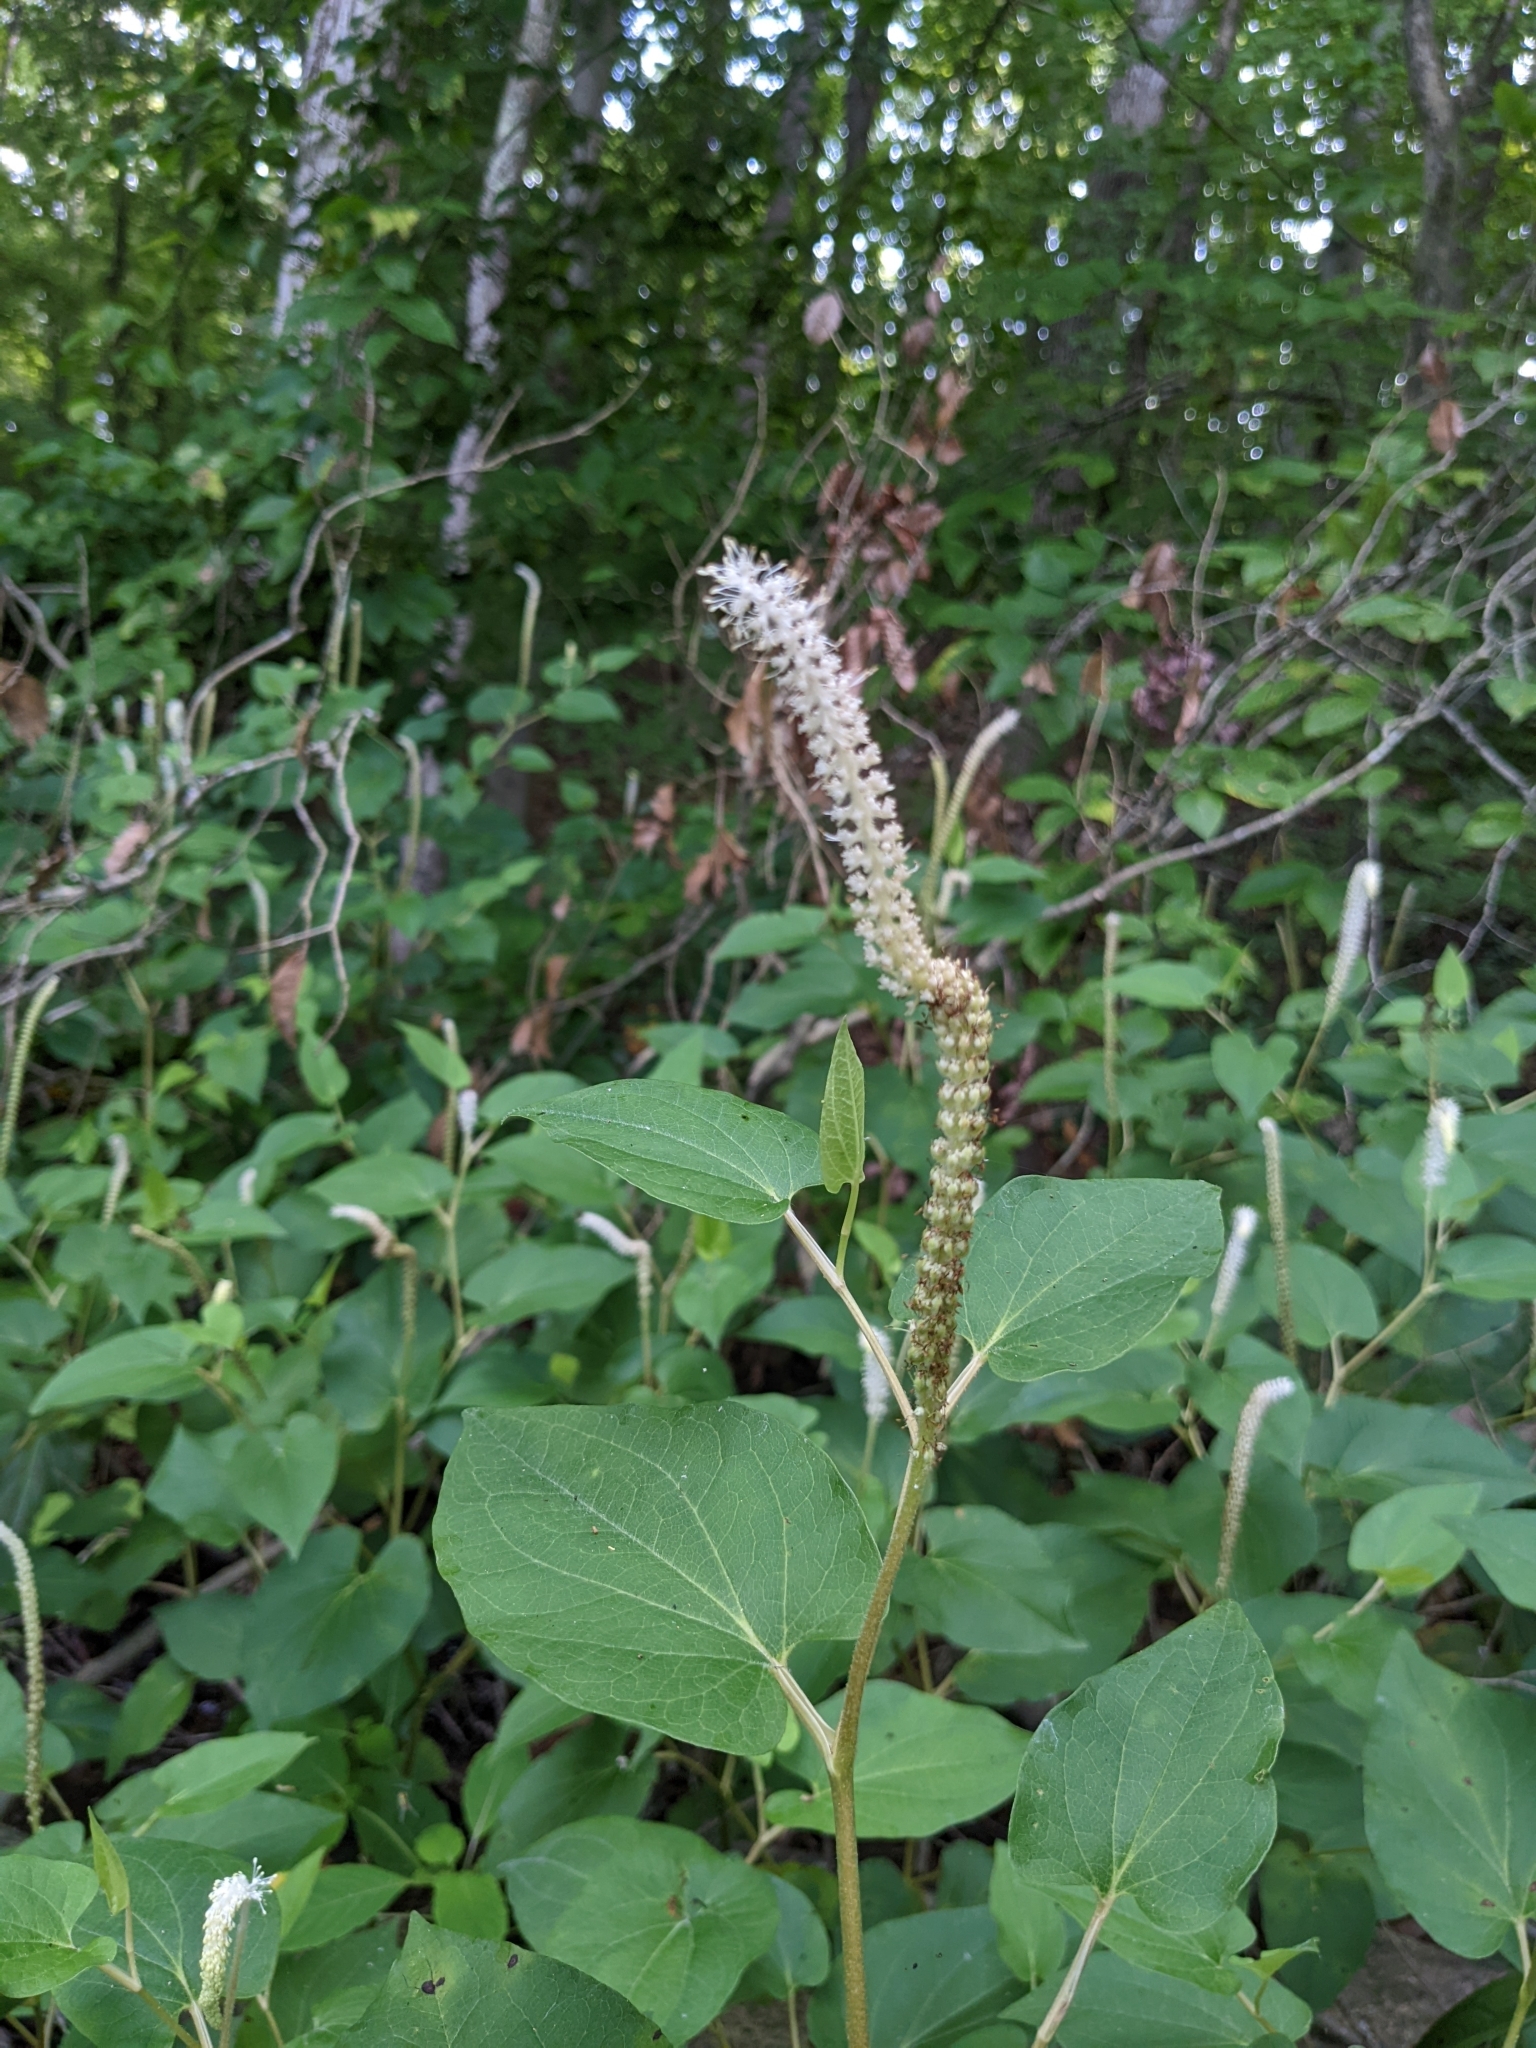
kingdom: Plantae
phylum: Tracheophyta
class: Magnoliopsida
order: Piperales
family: Saururaceae
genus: Saururus
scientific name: Saururus cernuus
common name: Lizard's-tail
